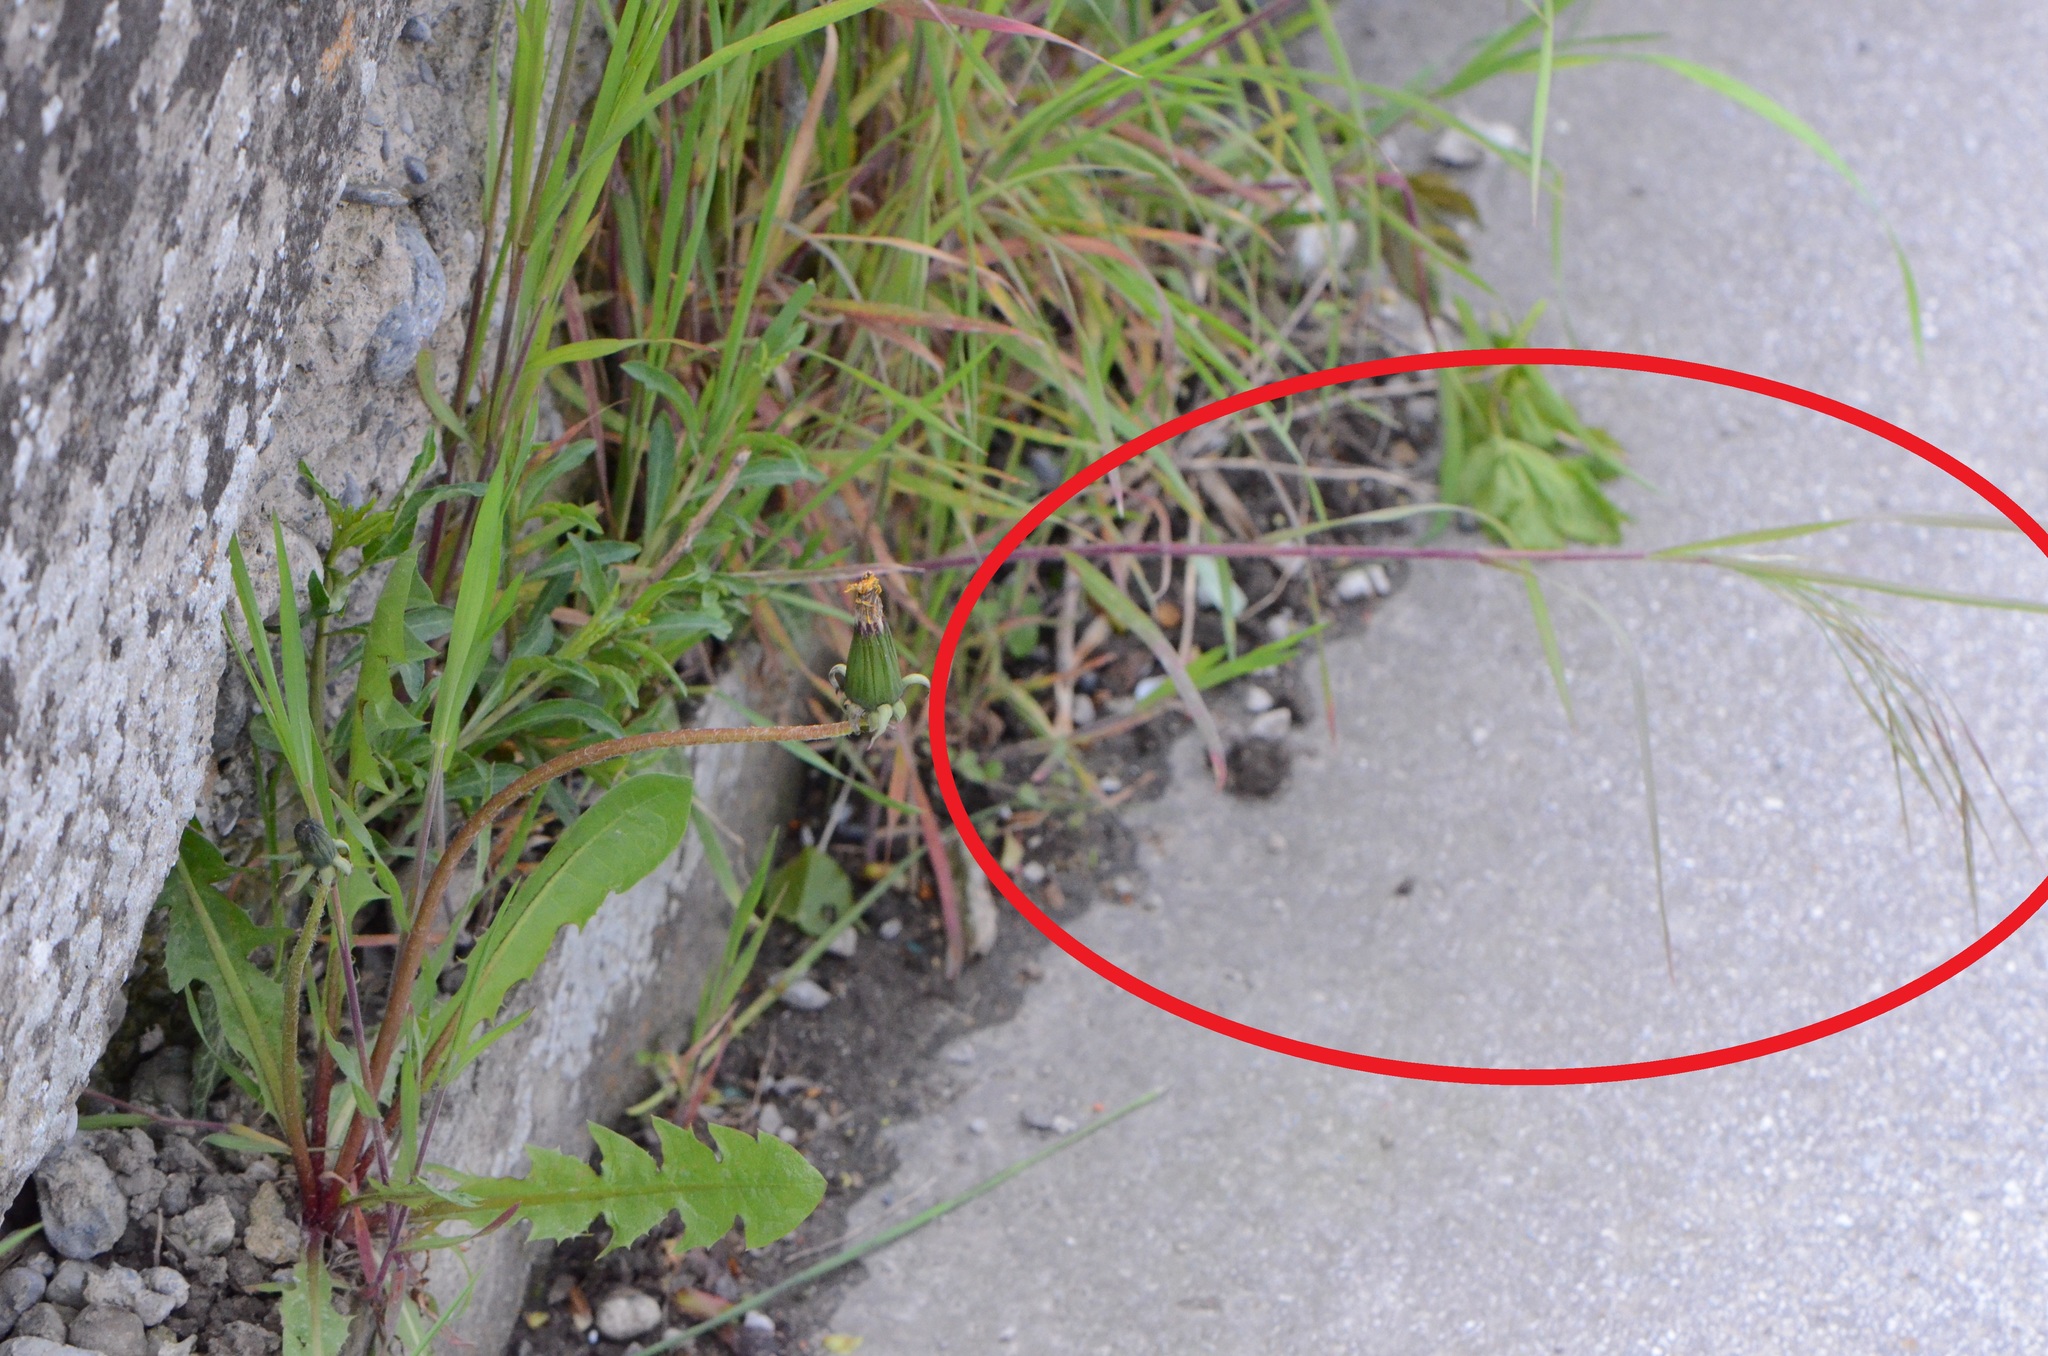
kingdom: Plantae
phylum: Tracheophyta
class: Liliopsida
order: Poales
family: Poaceae
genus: Bromus
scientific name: Bromus sterilis
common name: Poverty brome
